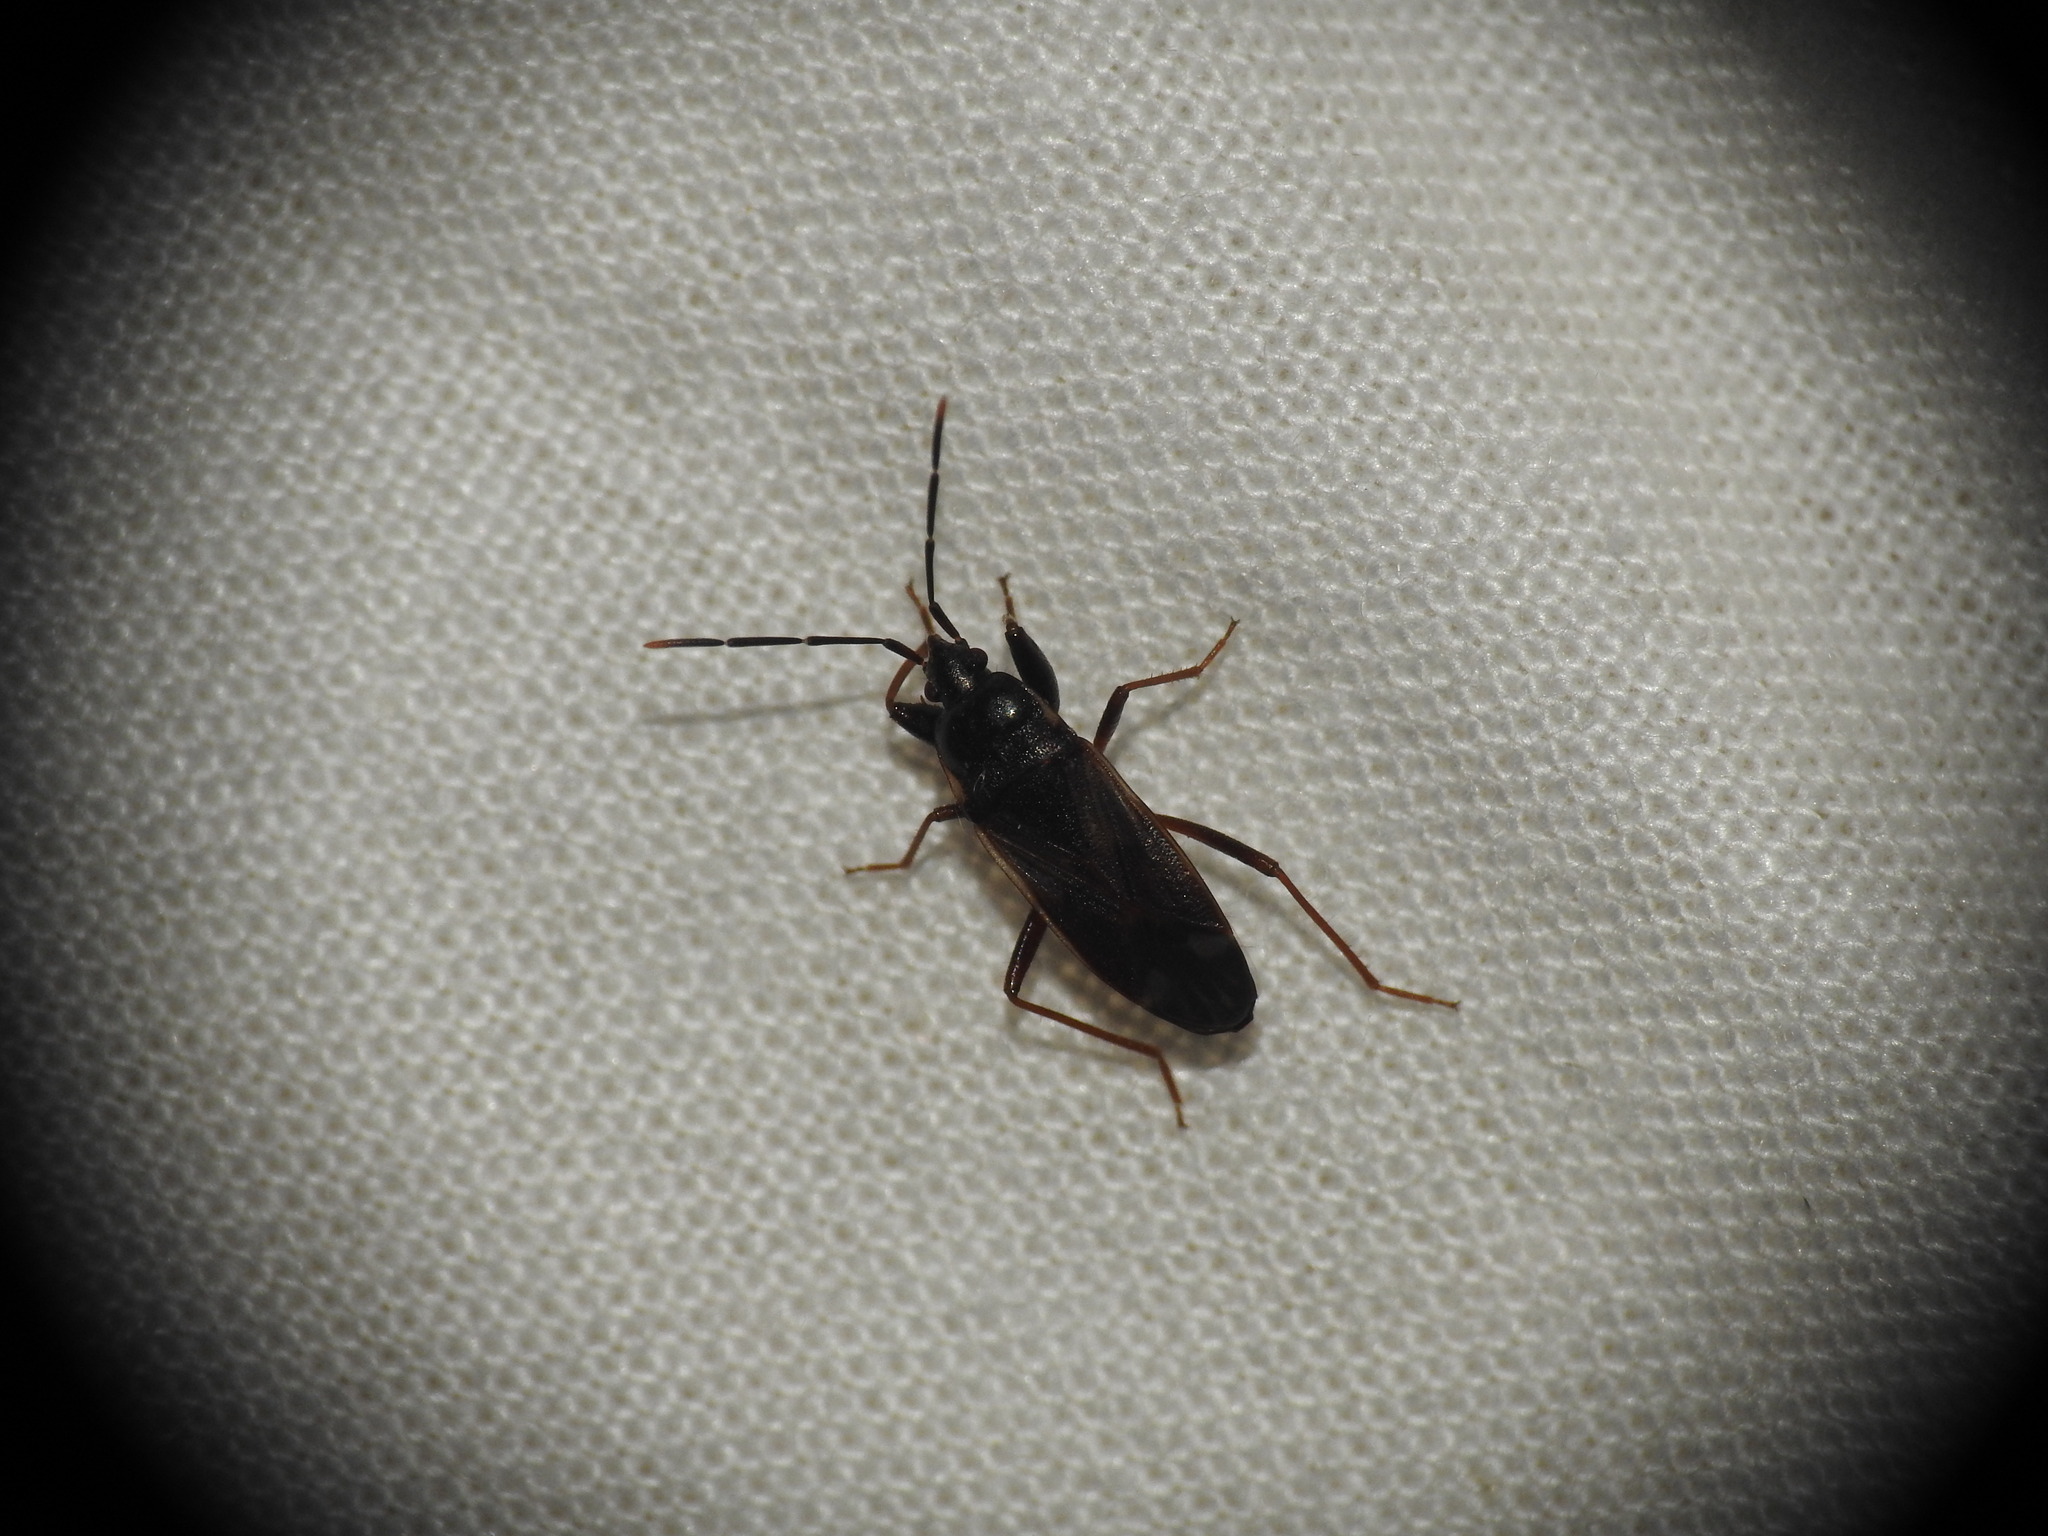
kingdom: Animalia
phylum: Arthropoda
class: Insecta
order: Hemiptera
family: Rhyparochromidae
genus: Eremocoris
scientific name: Eremocoris fenestratus
